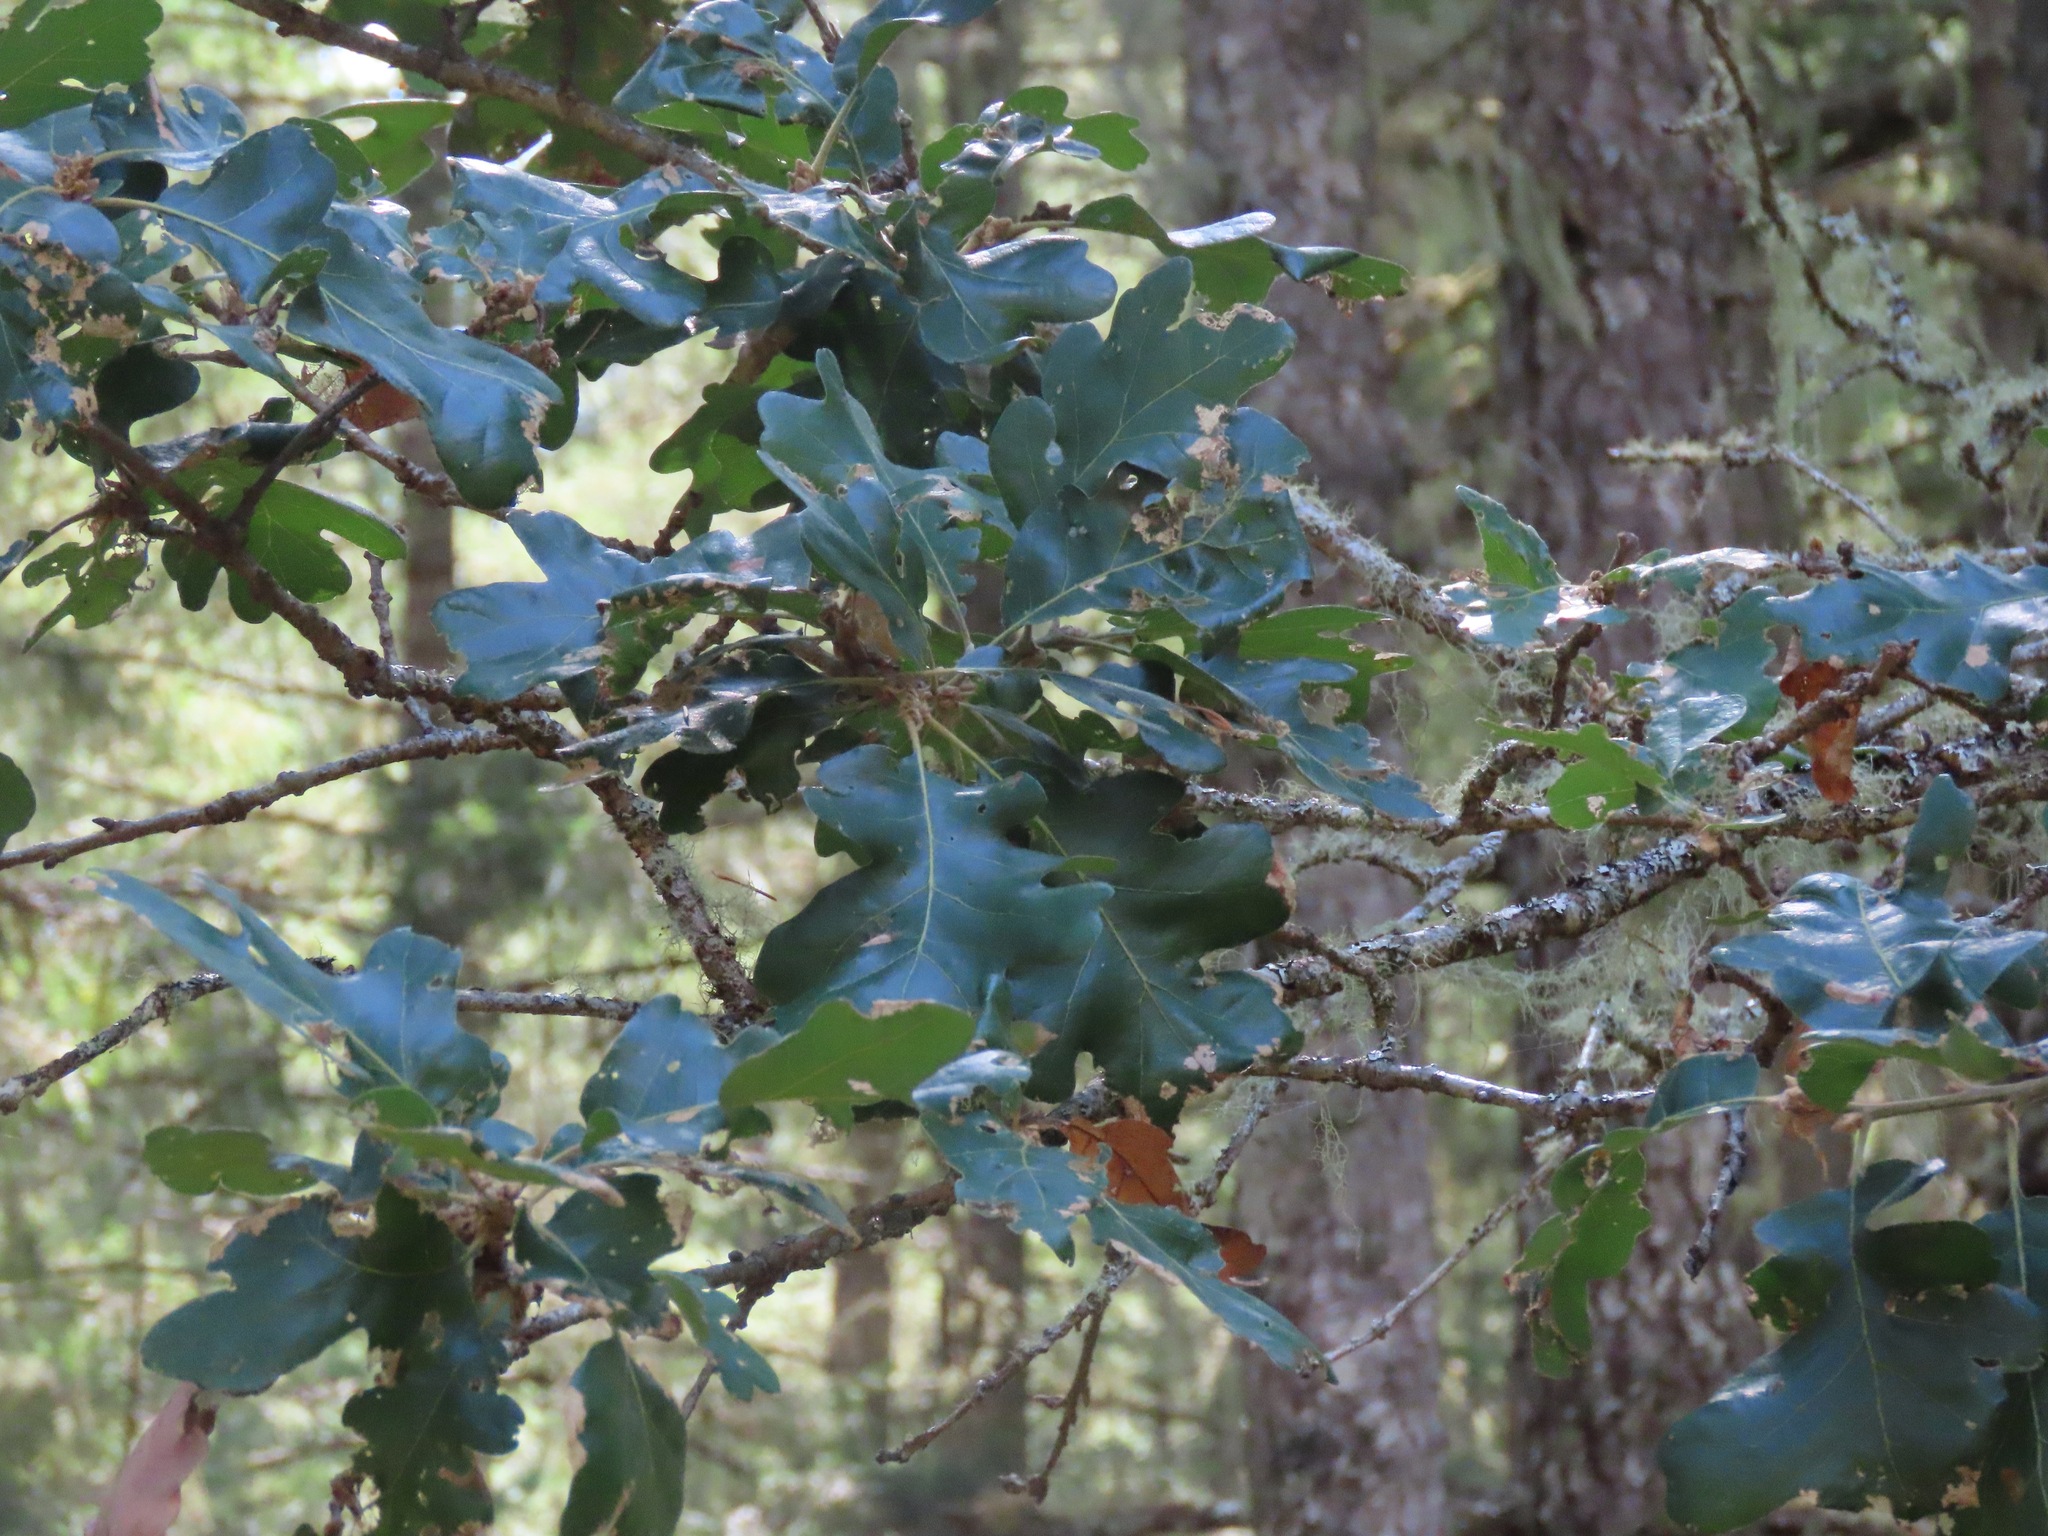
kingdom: Plantae
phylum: Tracheophyta
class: Magnoliopsida
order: Fagales
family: Fagaceae
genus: Quercus
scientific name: Quercus garryana
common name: Garry oak
